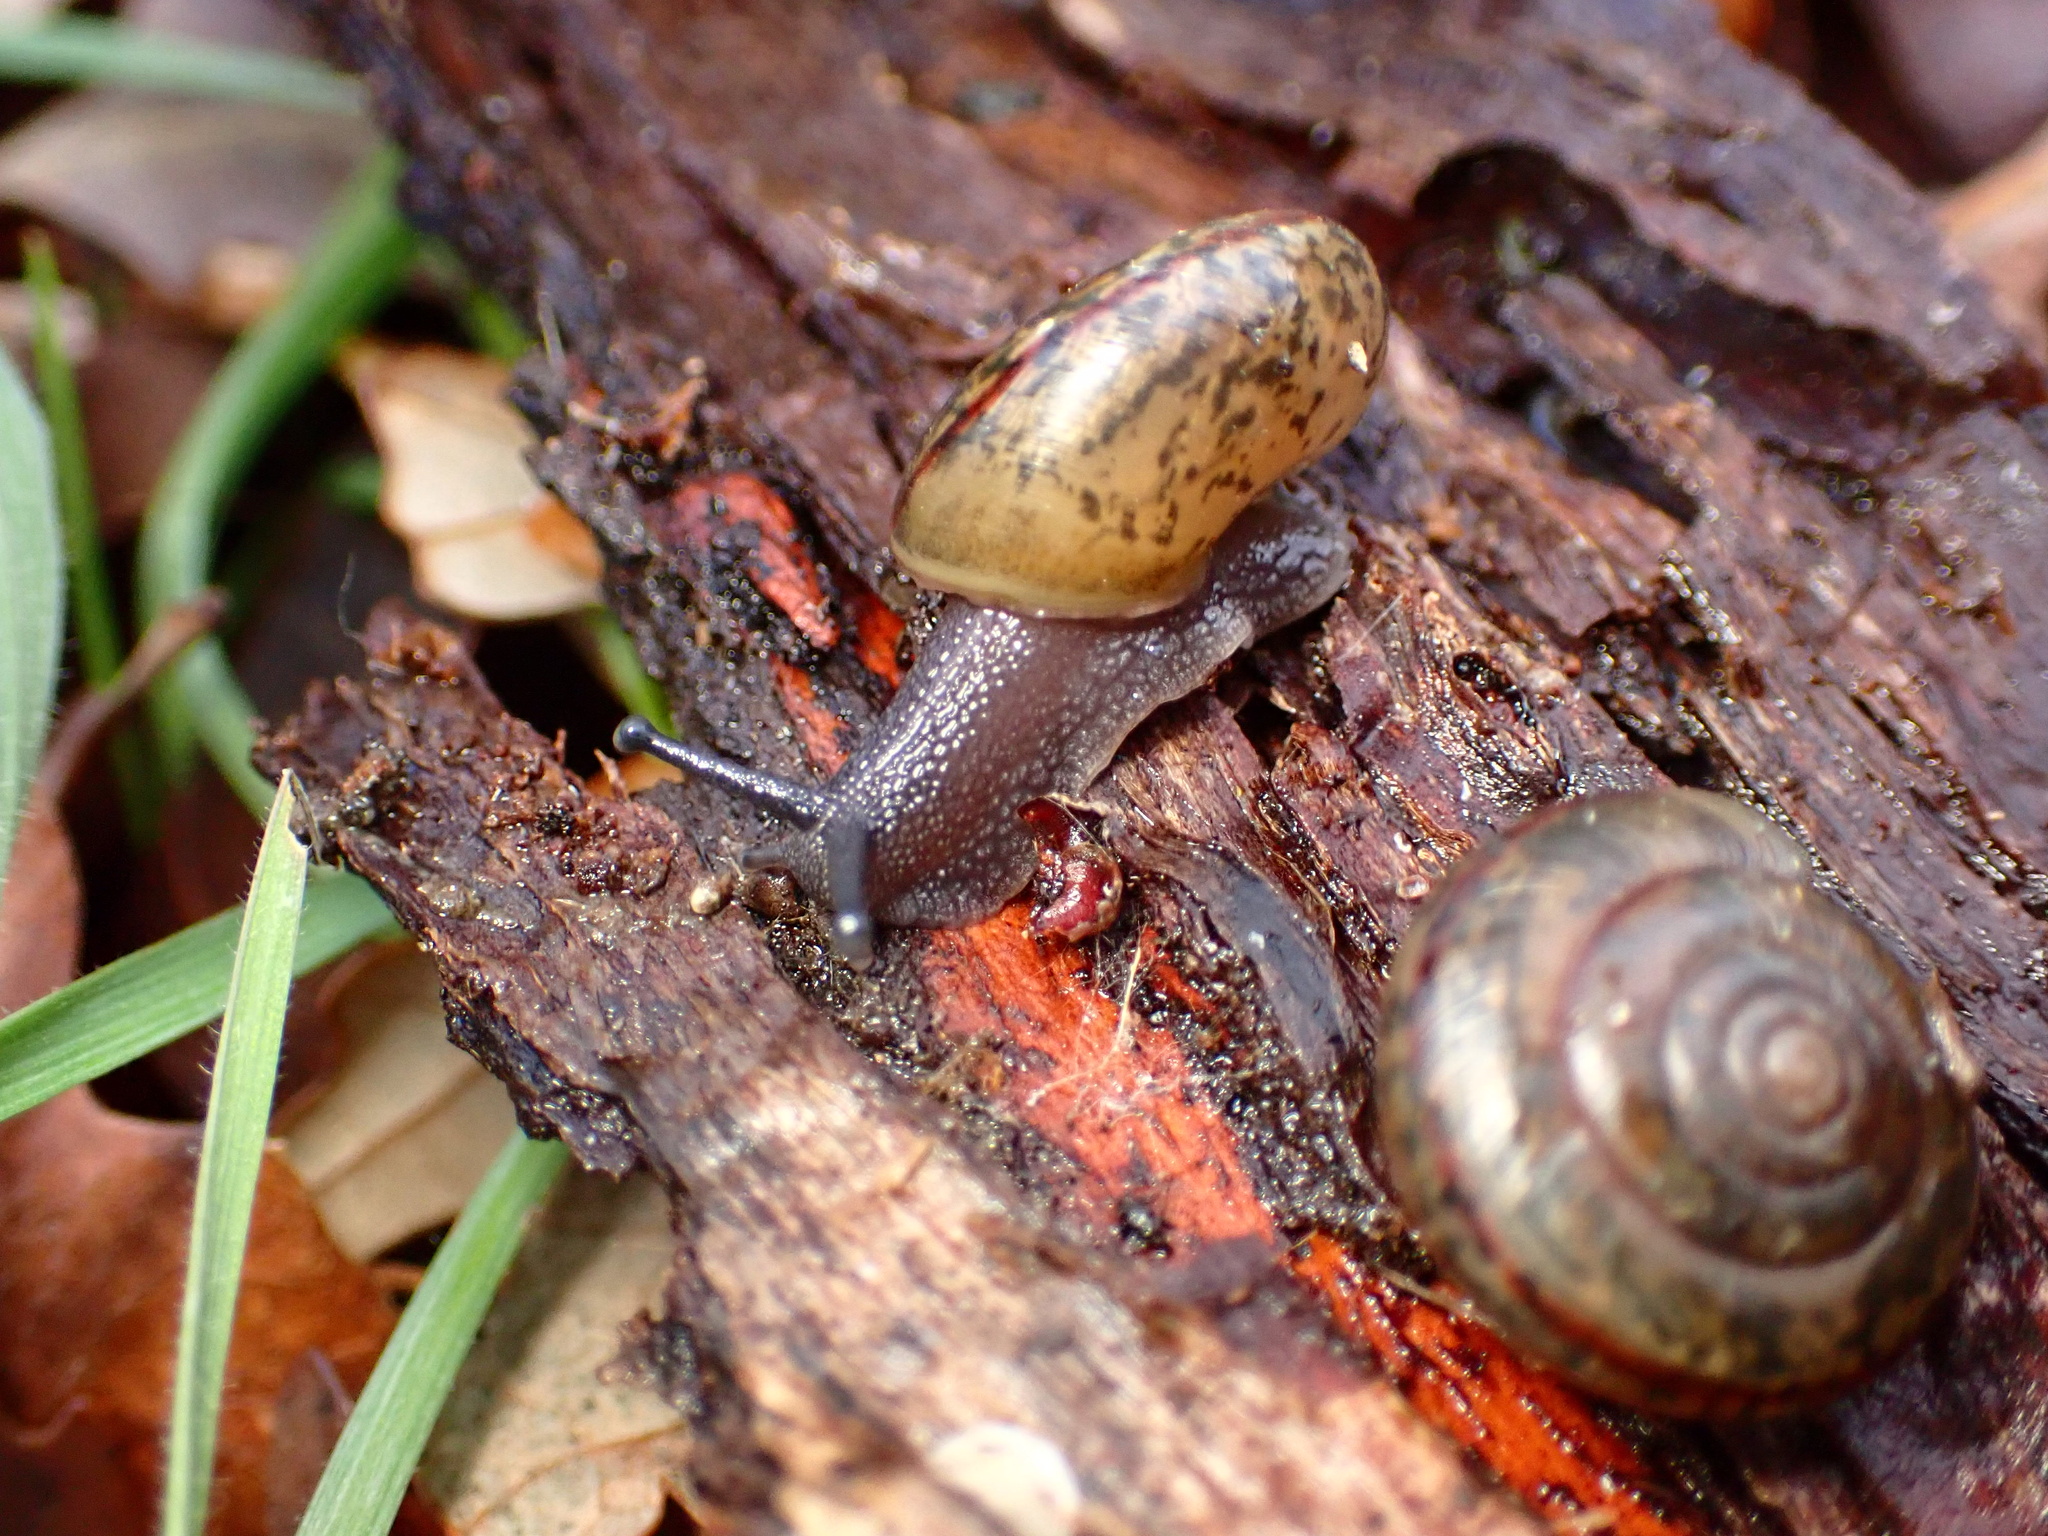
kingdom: Animalia
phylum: Mollusca
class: Gastropoda
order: Stylommatophora
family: Xanthonychidae
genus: Helminthoglypta
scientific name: Helminthoglypta salviae
